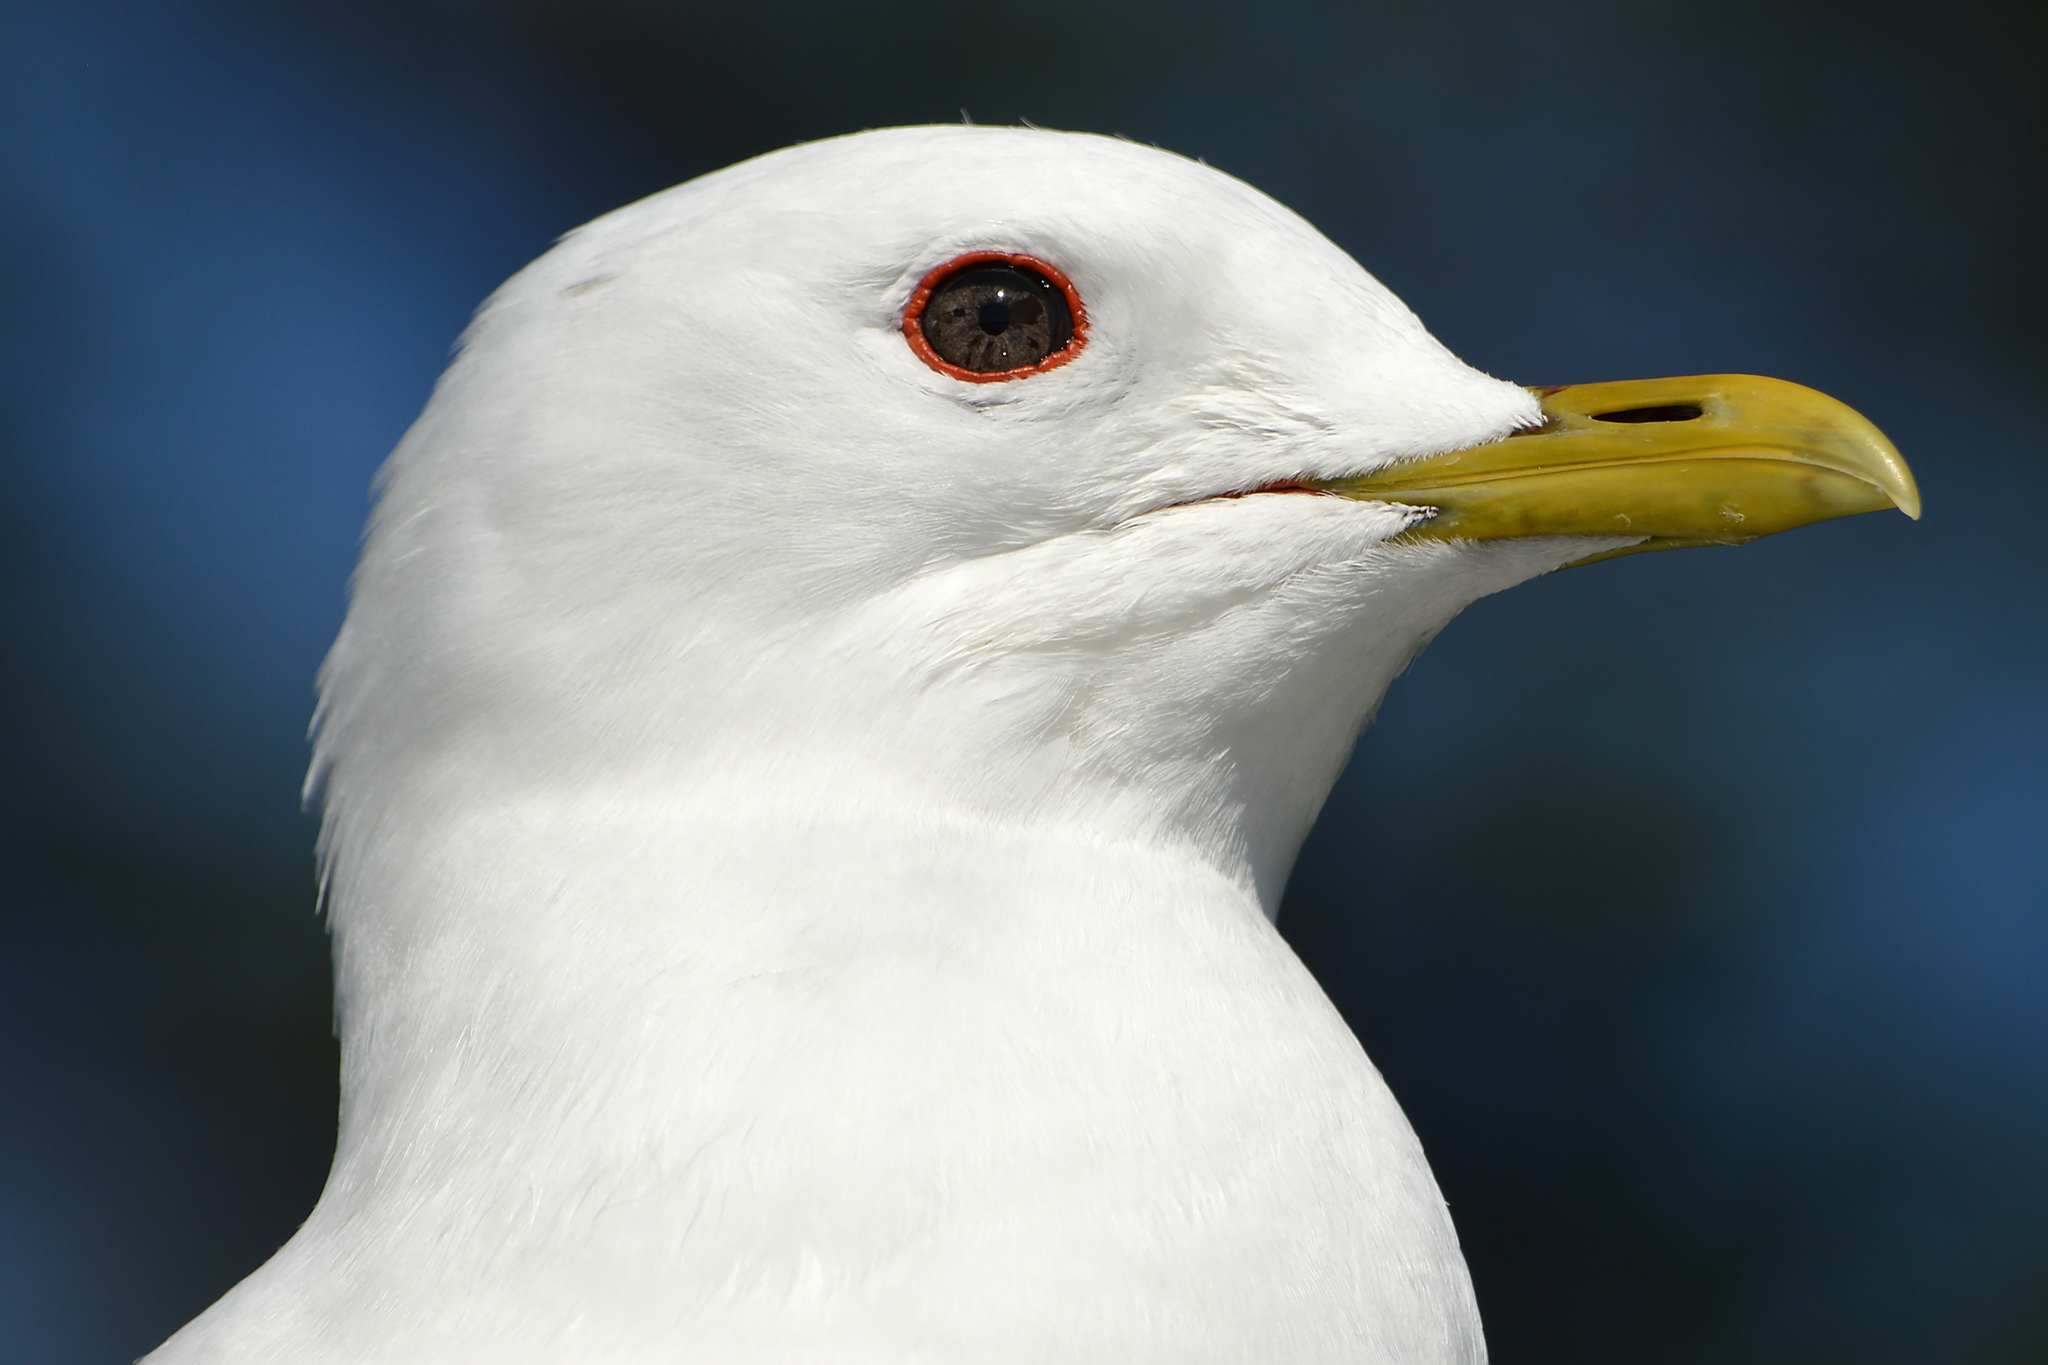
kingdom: Animalia
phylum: Chordata
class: Aves
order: Charadriiformes
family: Laridae
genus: Larus
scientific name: Larus canus
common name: Mew gull
